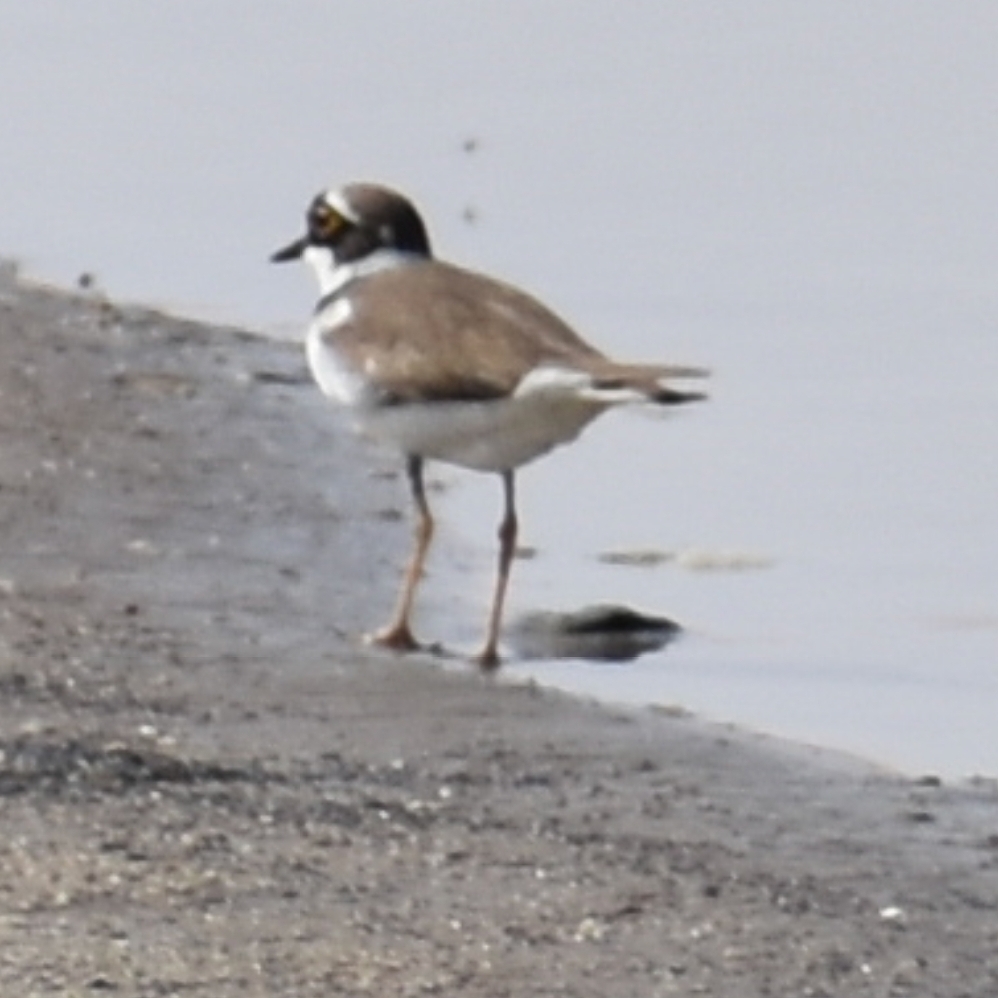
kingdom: Animalia
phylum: Chordata
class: Aves
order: Charadriiformes
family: Charadriidae
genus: Charadrius
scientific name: Charadrius dubius
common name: Little ringed plover
